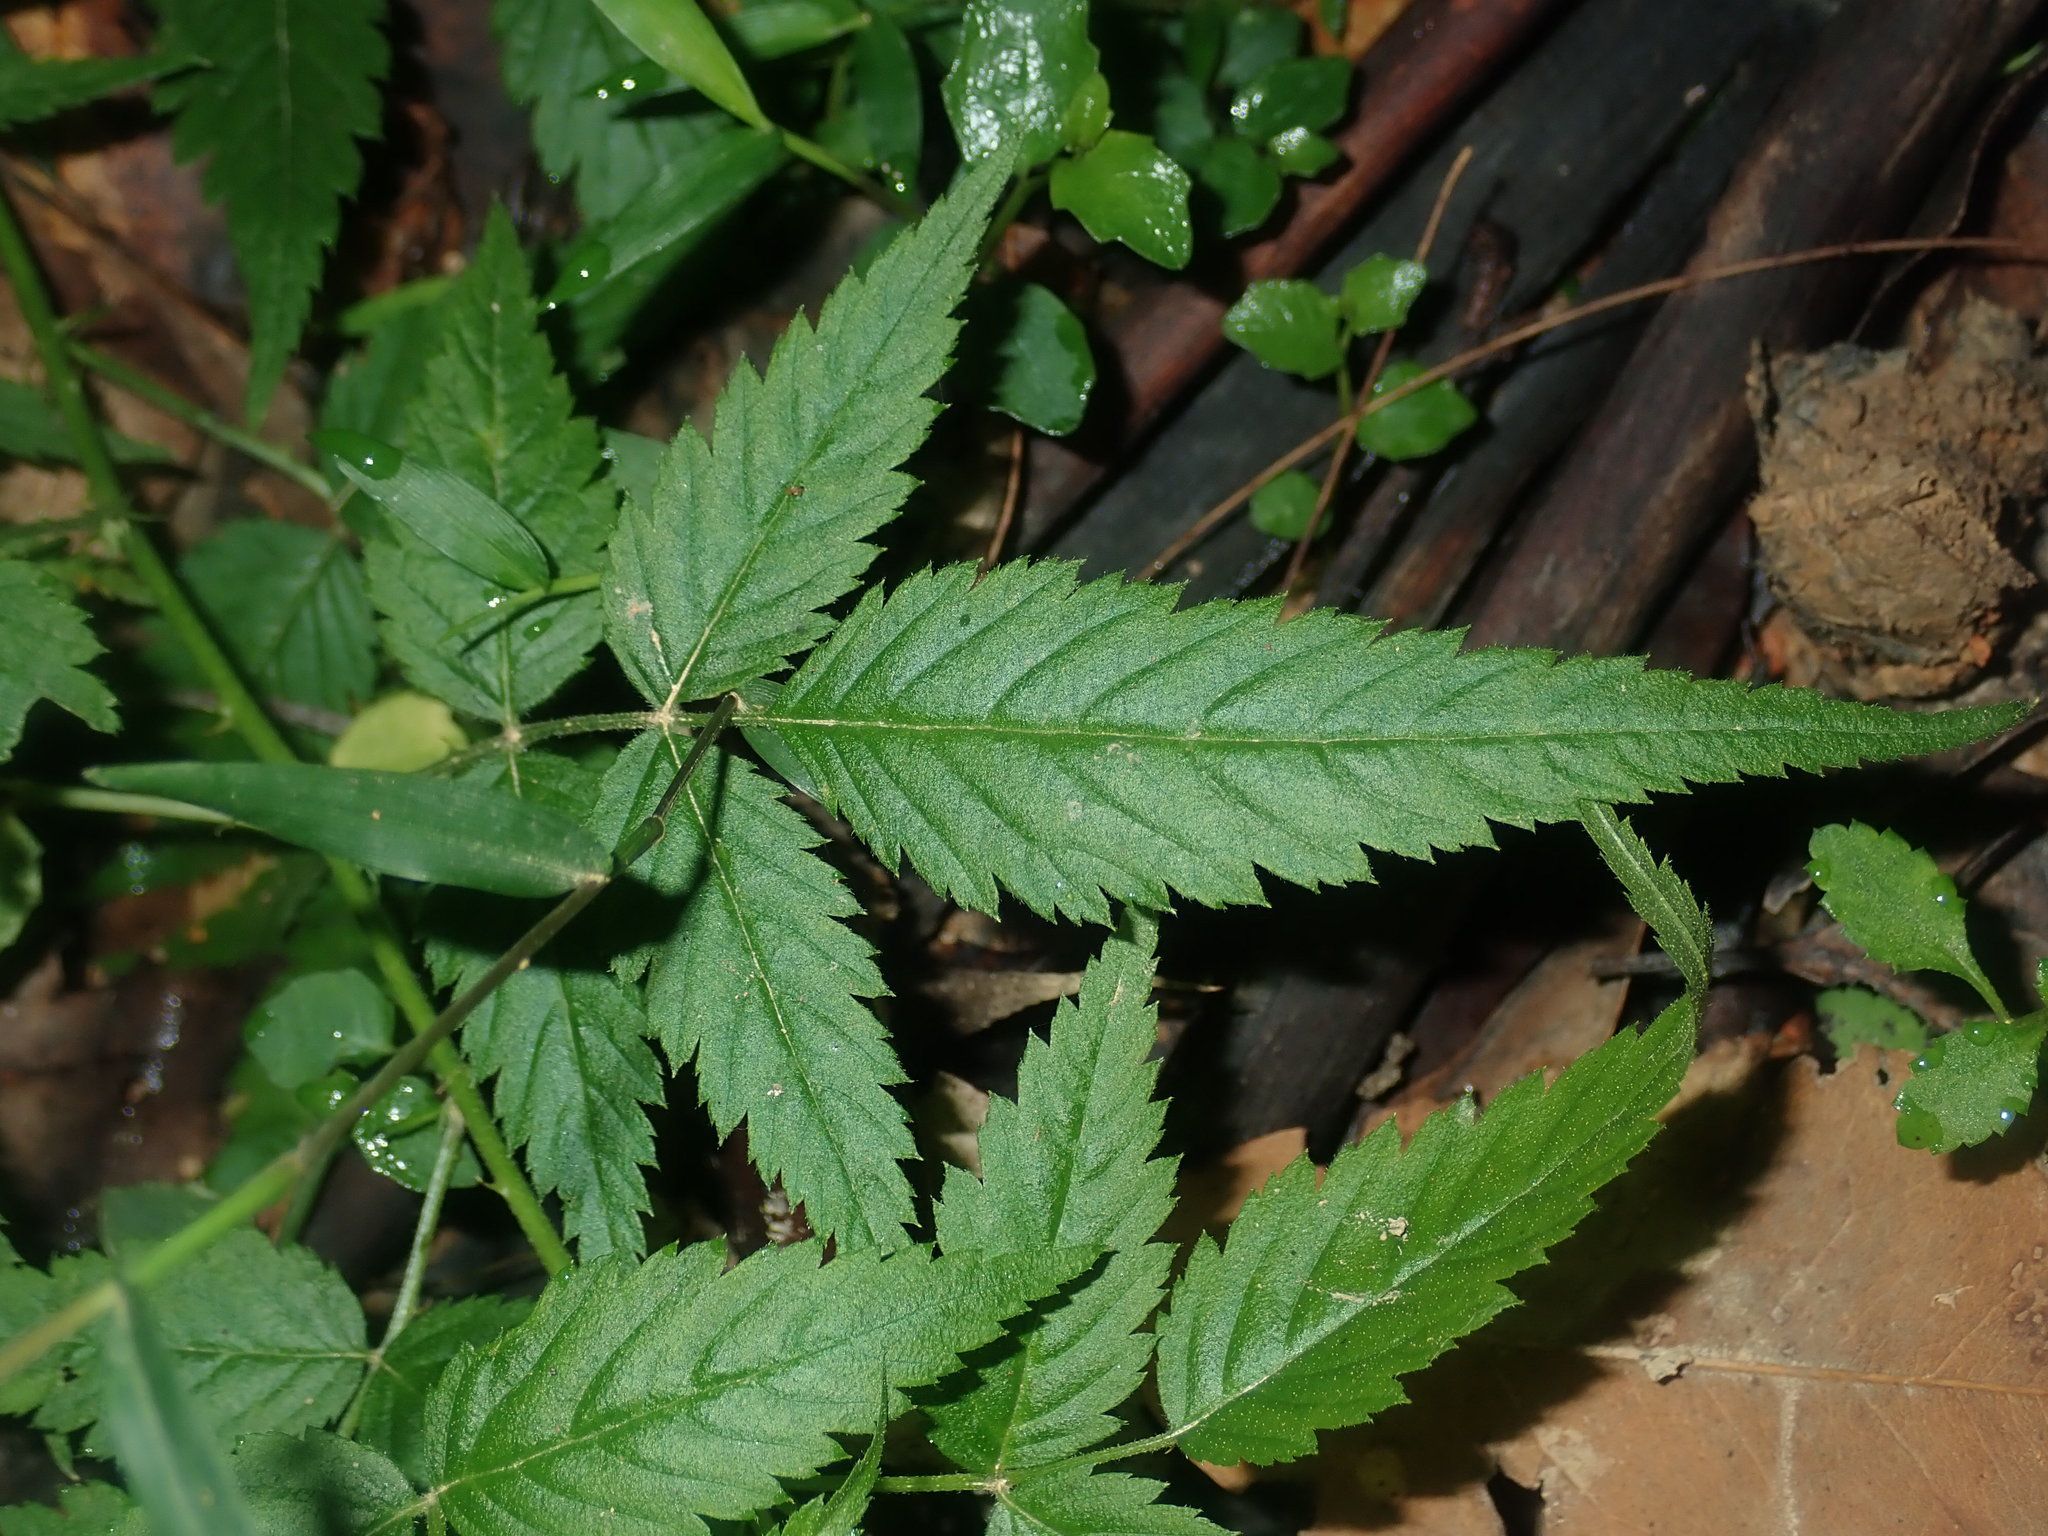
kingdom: Plantae
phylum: Tracheophyta
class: Magnoliopsida
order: Rosales
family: Rosaceae
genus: Rubus
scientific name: Rubus rosifolius
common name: Roseleaf raspberry
